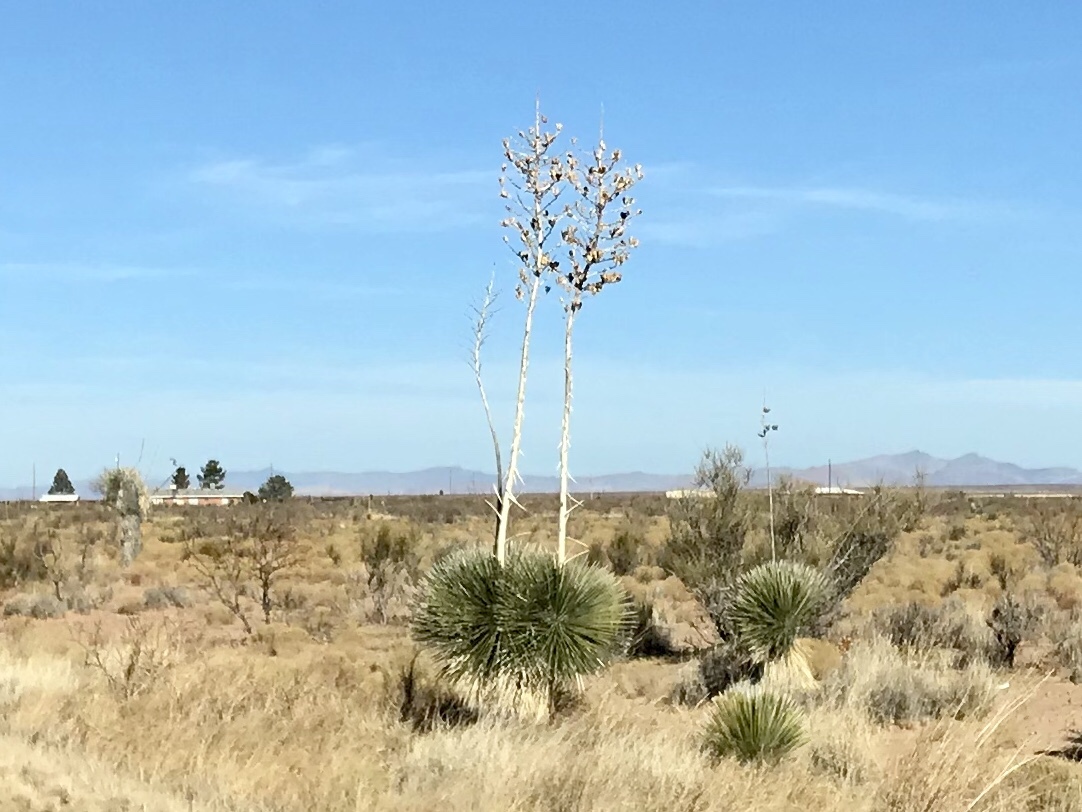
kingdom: Plantae
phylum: Tracheophyta
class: Liliopsida
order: Asparagales
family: Asparagaceae
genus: Yucca
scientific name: Yucca elata
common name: Palmella
